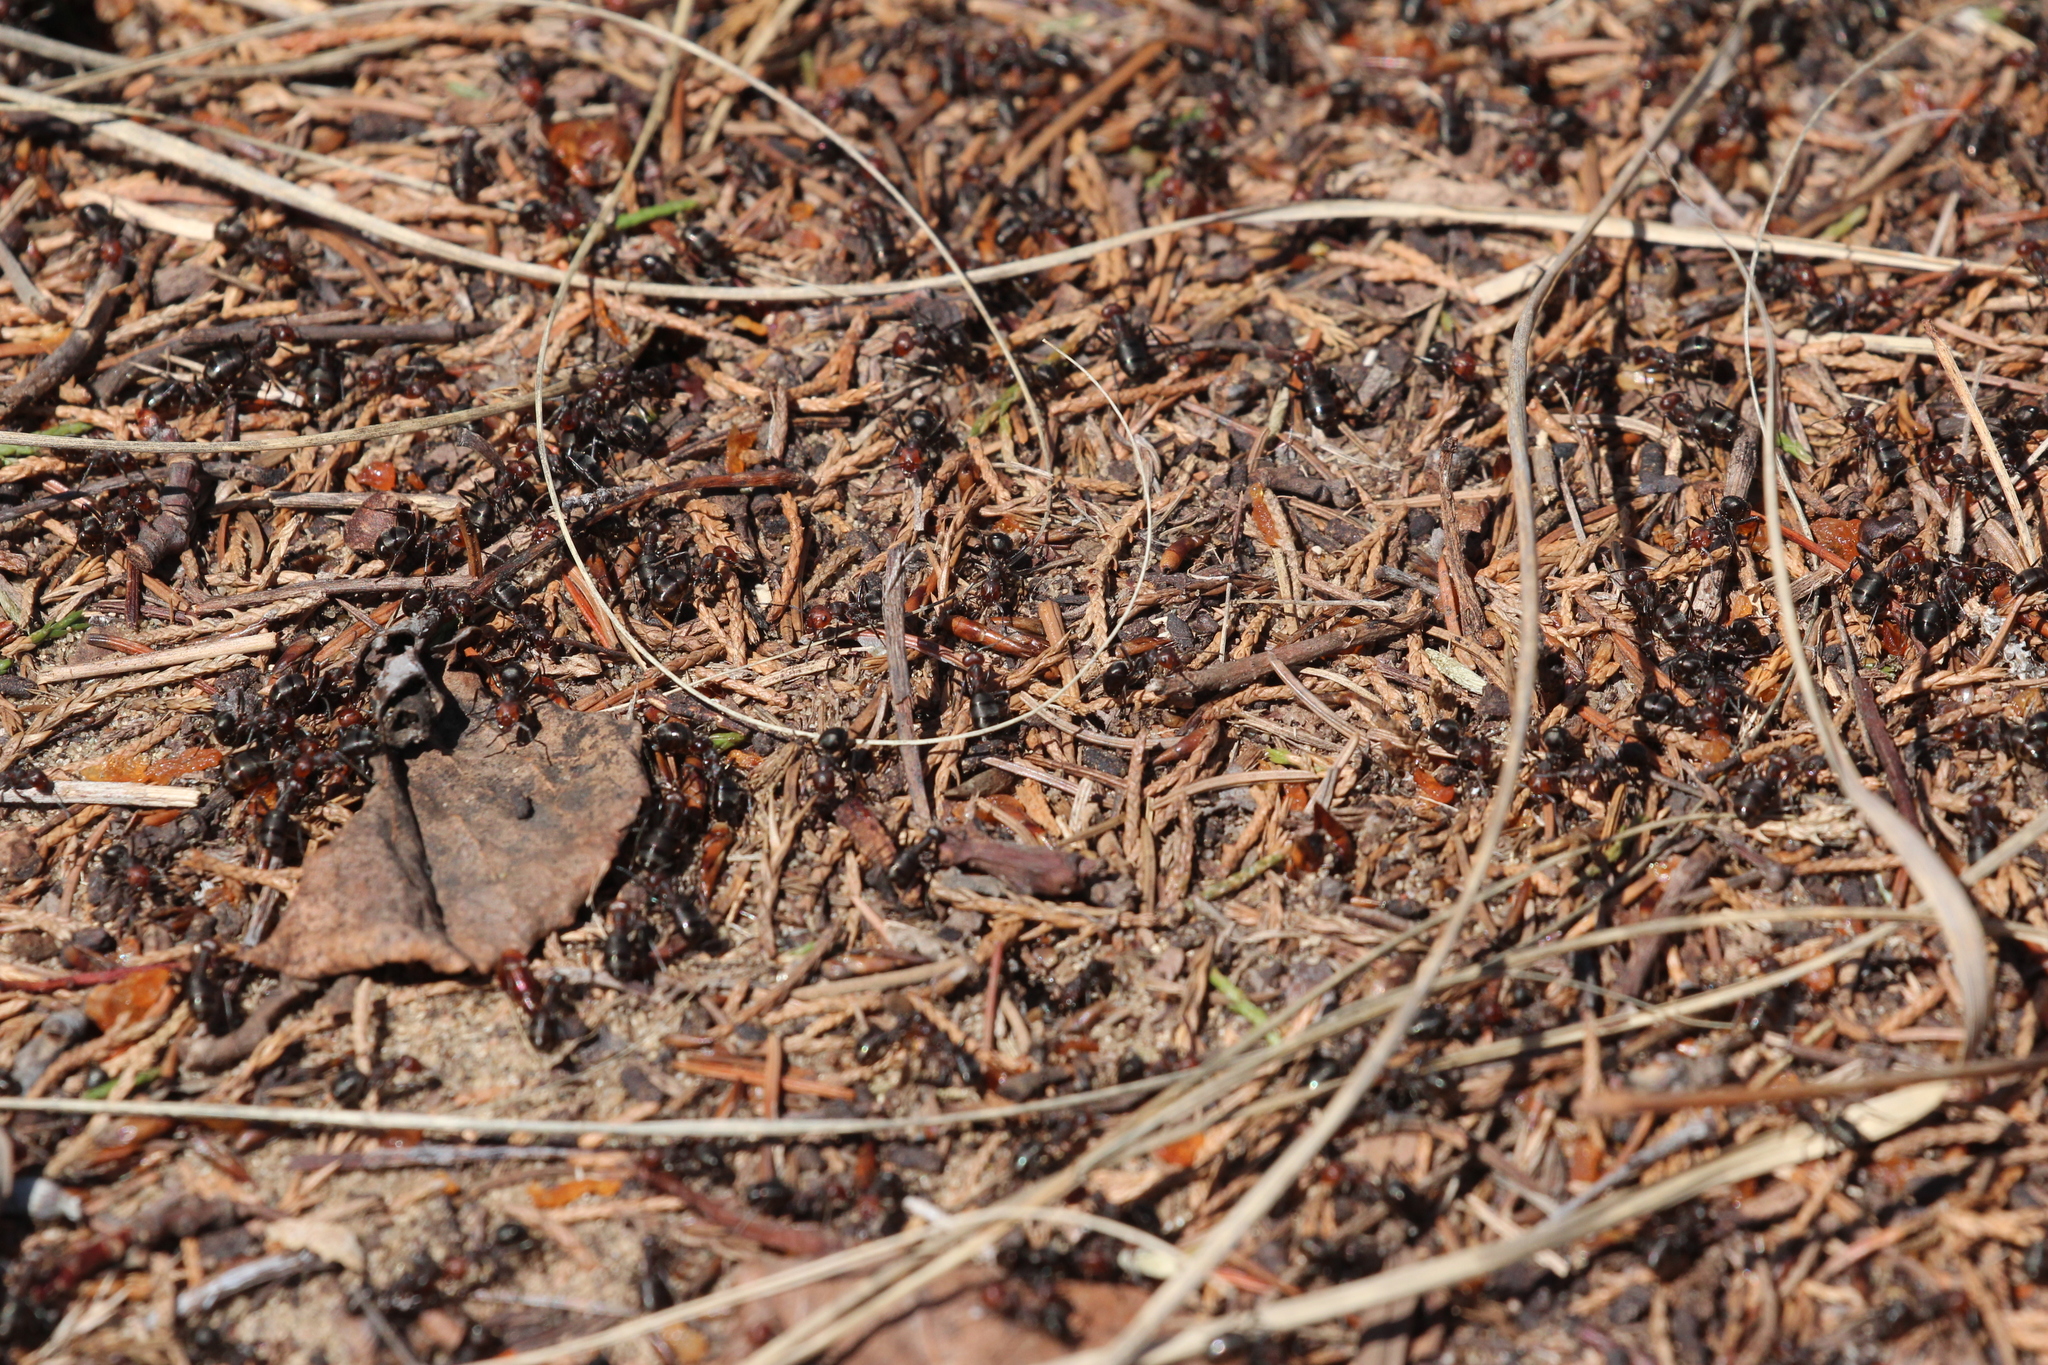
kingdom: Animalia
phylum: Arthropoda
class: Insecta
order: Hymenoptera
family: Formicidae
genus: Formica
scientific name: Formica obscuripes
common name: Western thatching ant
